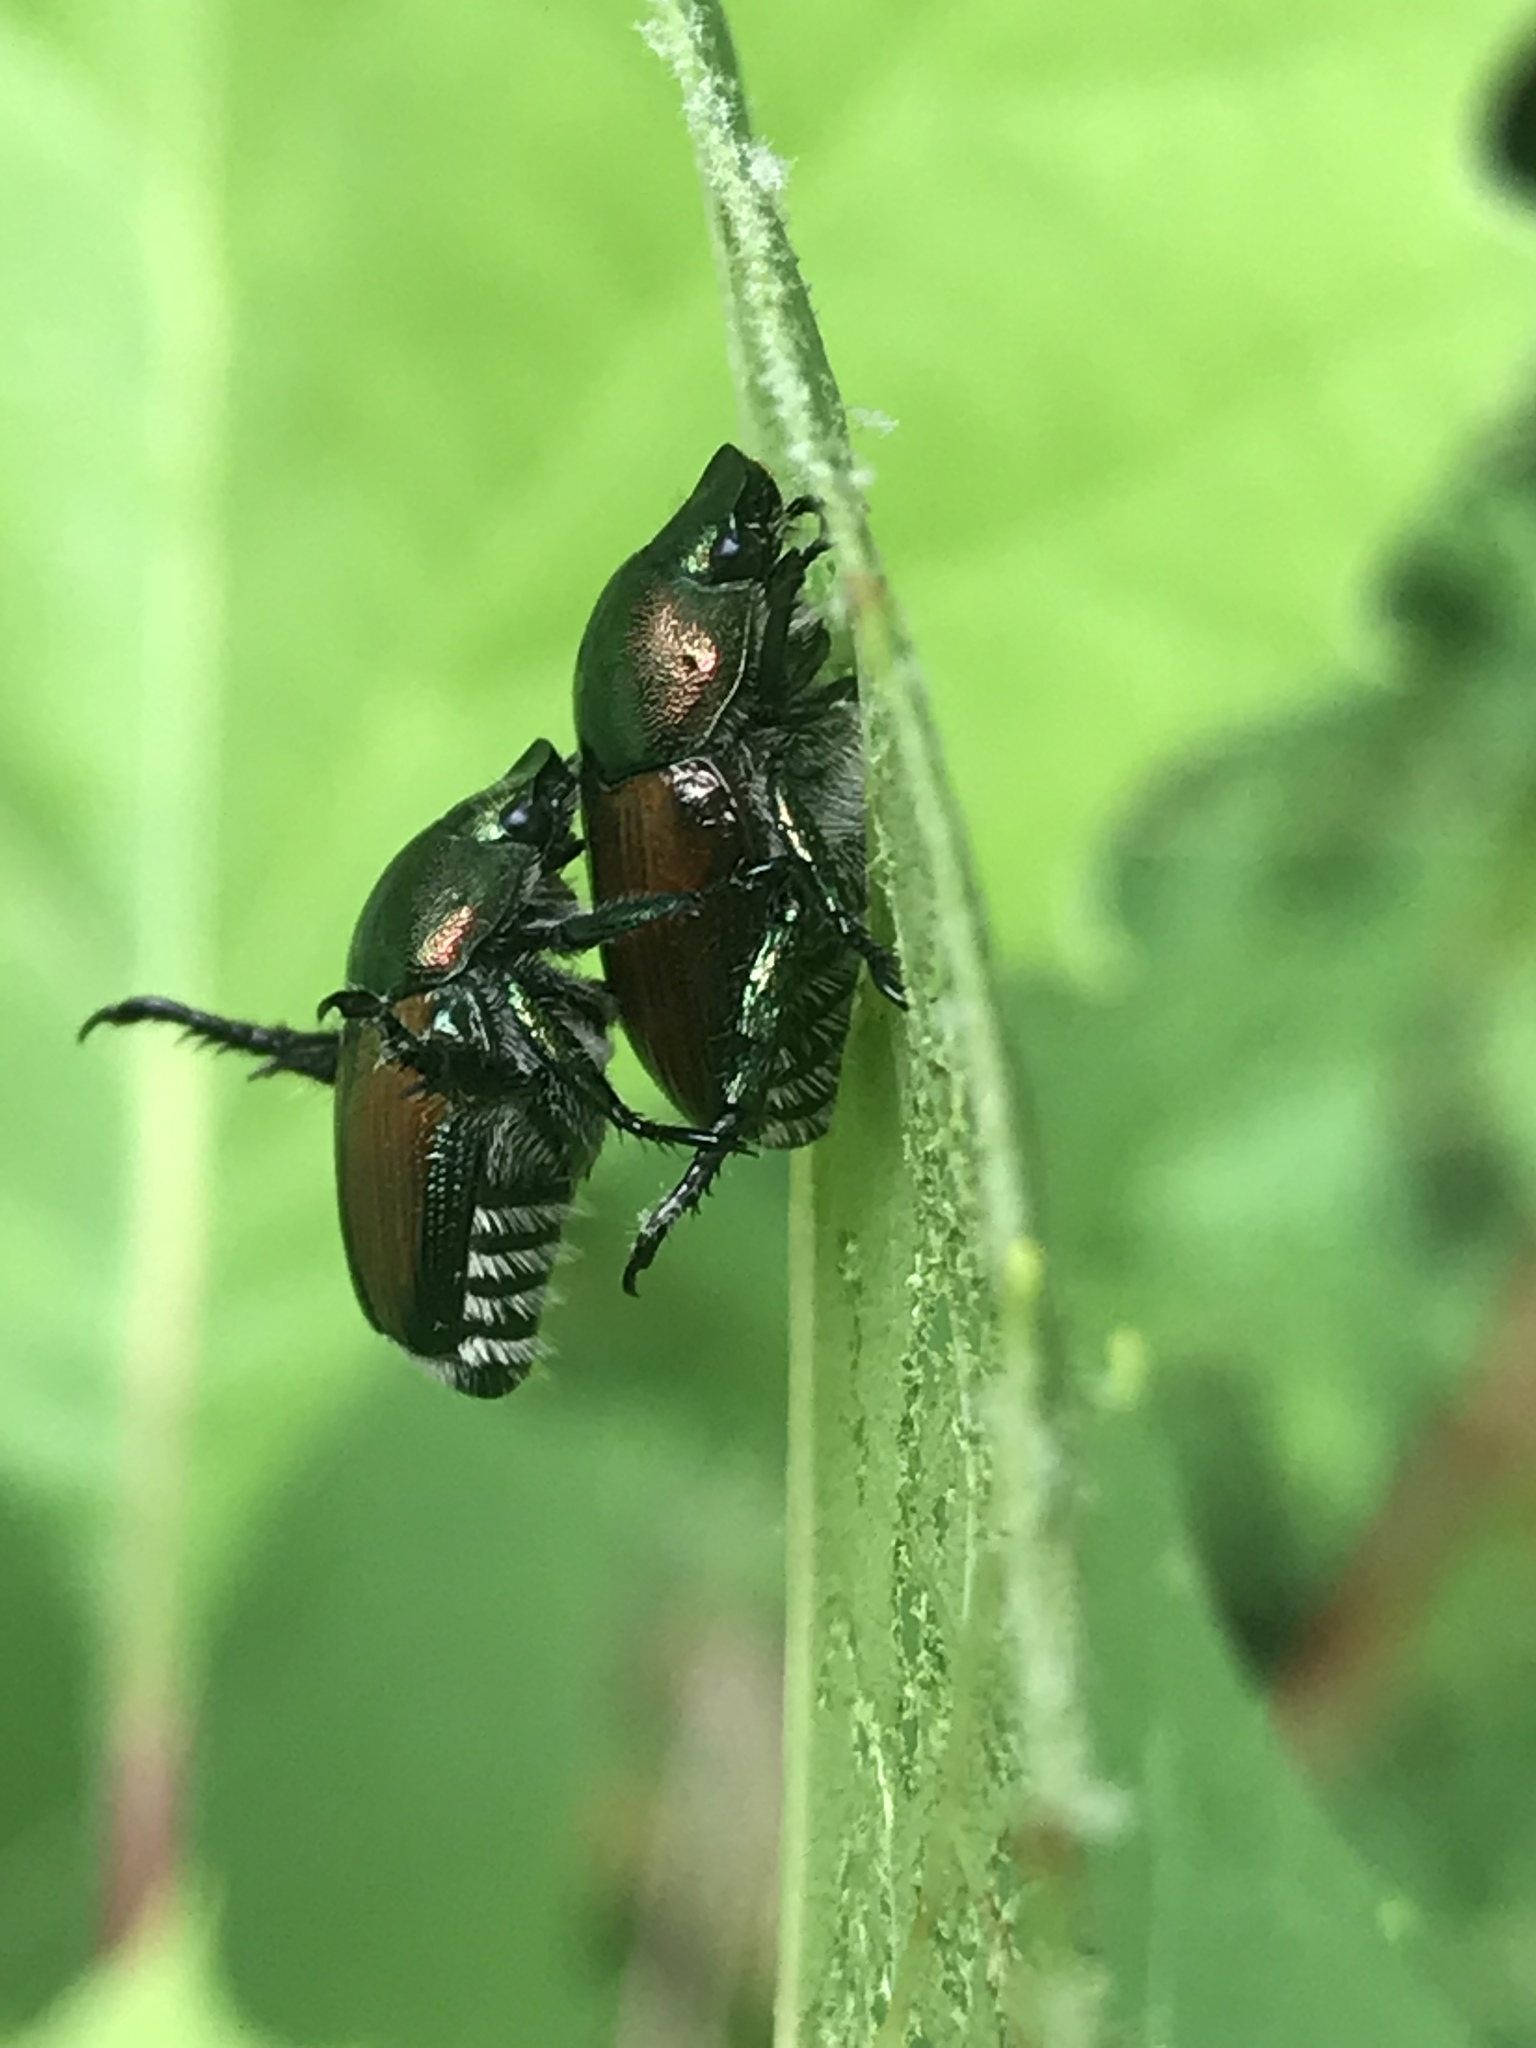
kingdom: Animalia
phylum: Arthropoda
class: Insecta
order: Coleoptera
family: Scarabaeidae
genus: Popillia
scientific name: Popillia japonica
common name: Japanese beetle
